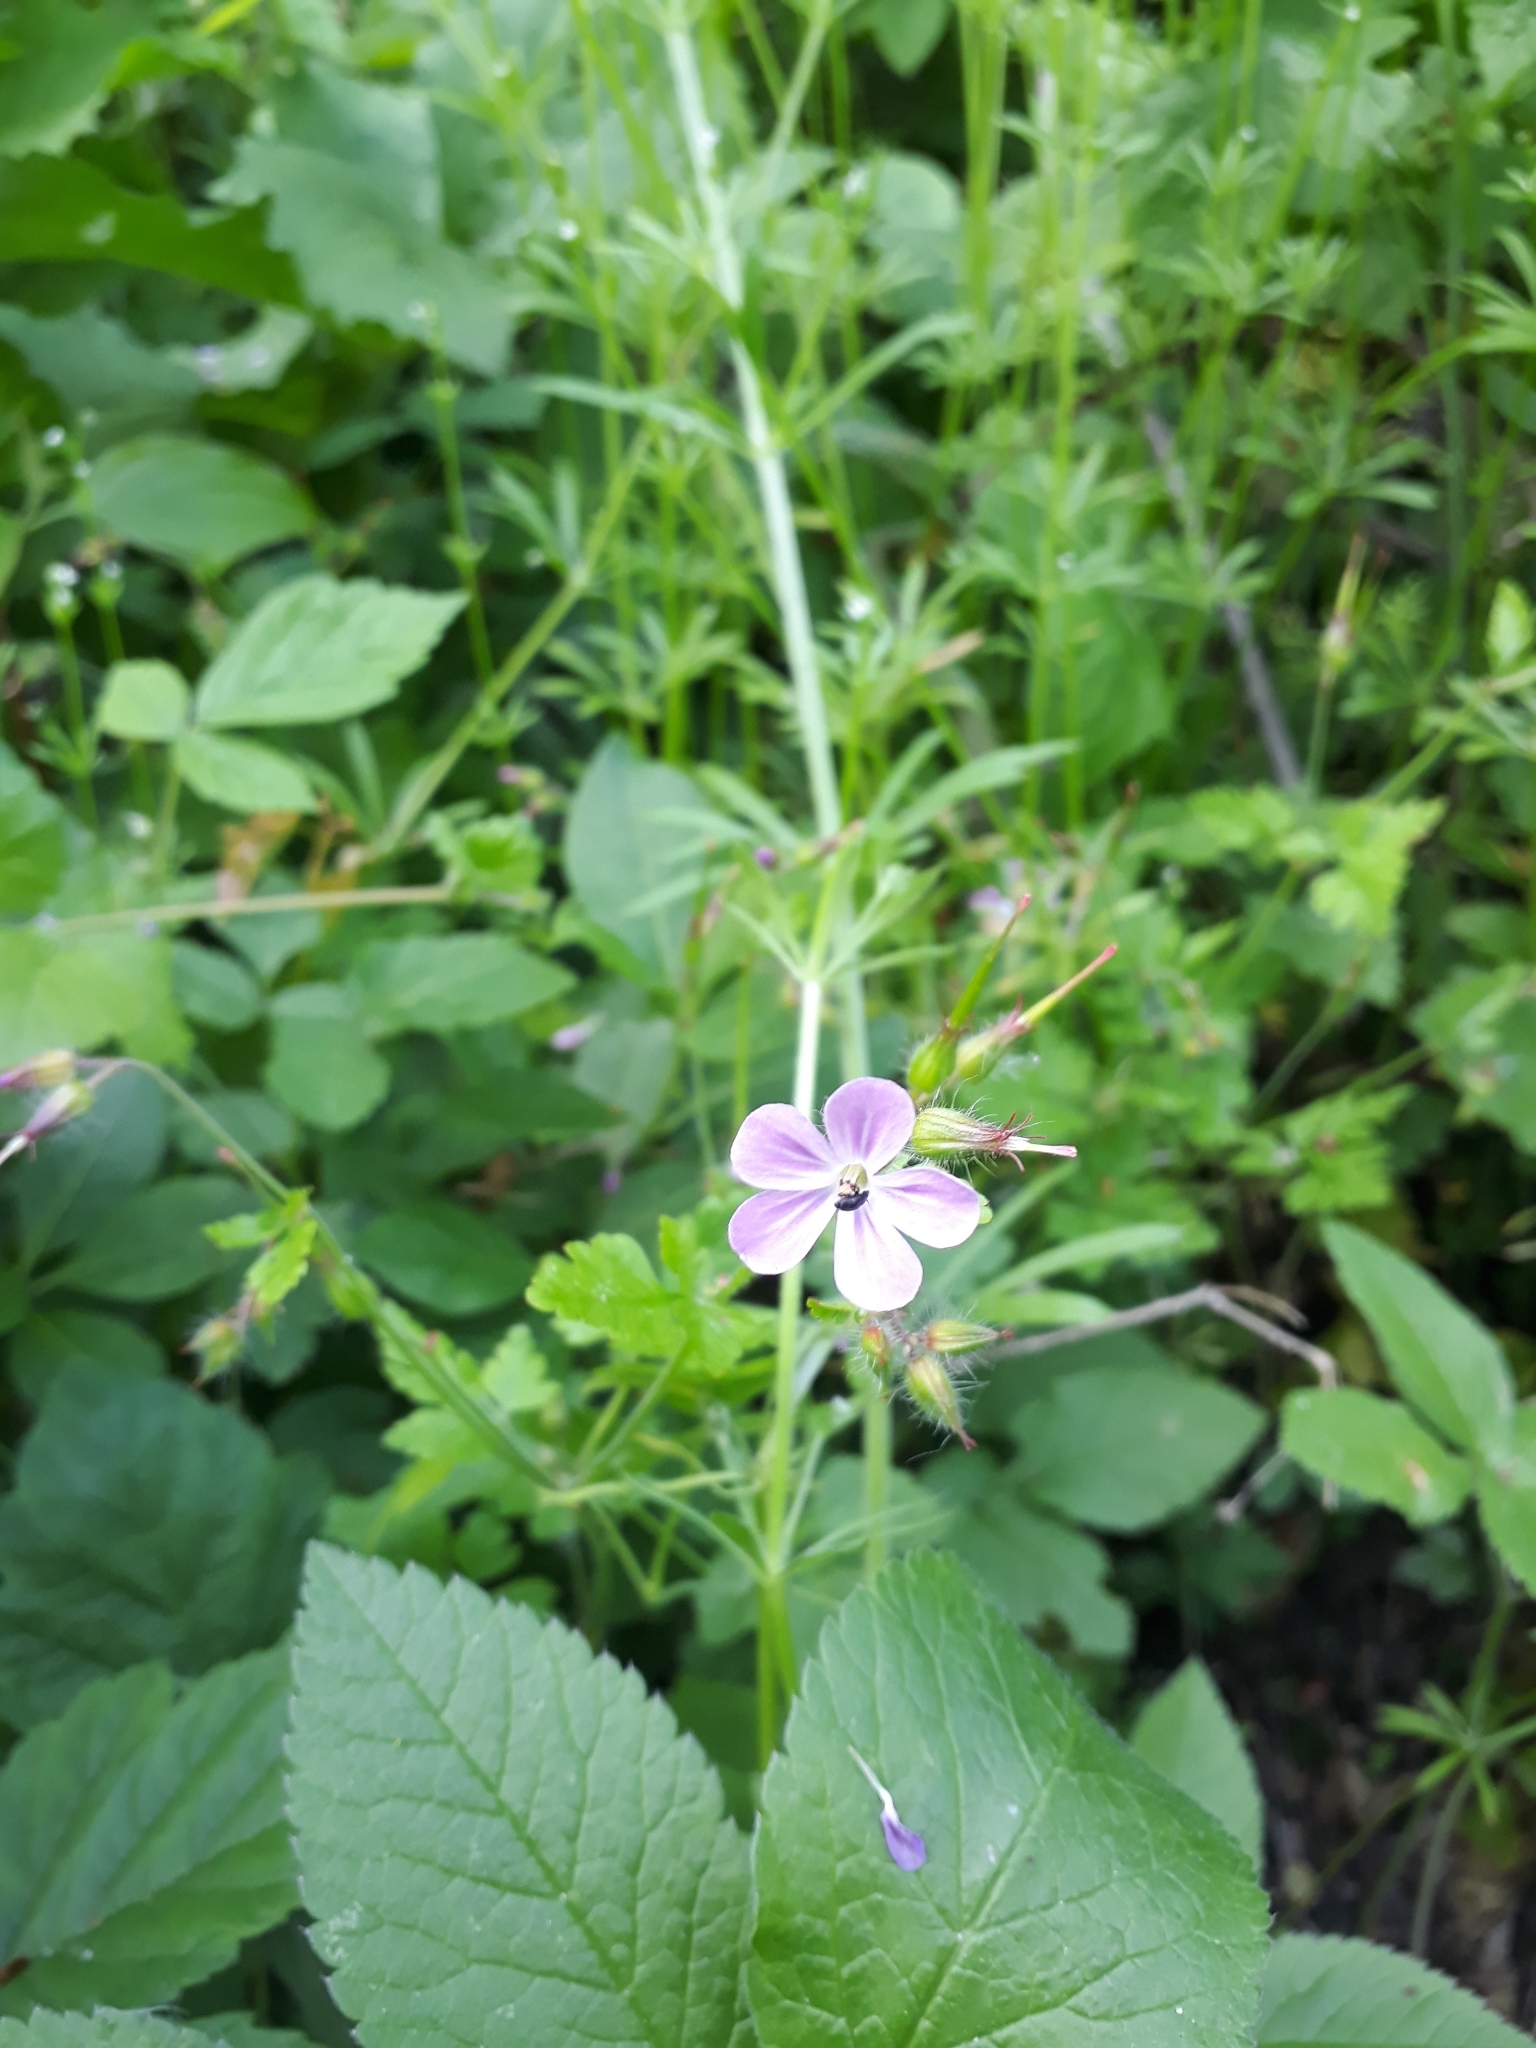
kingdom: Plantae
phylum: Tracheophyta
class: Magnoliopsida
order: Geraniales
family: Geraniaceae
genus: Geranium
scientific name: Geranium robertianum
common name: Herb-robert
